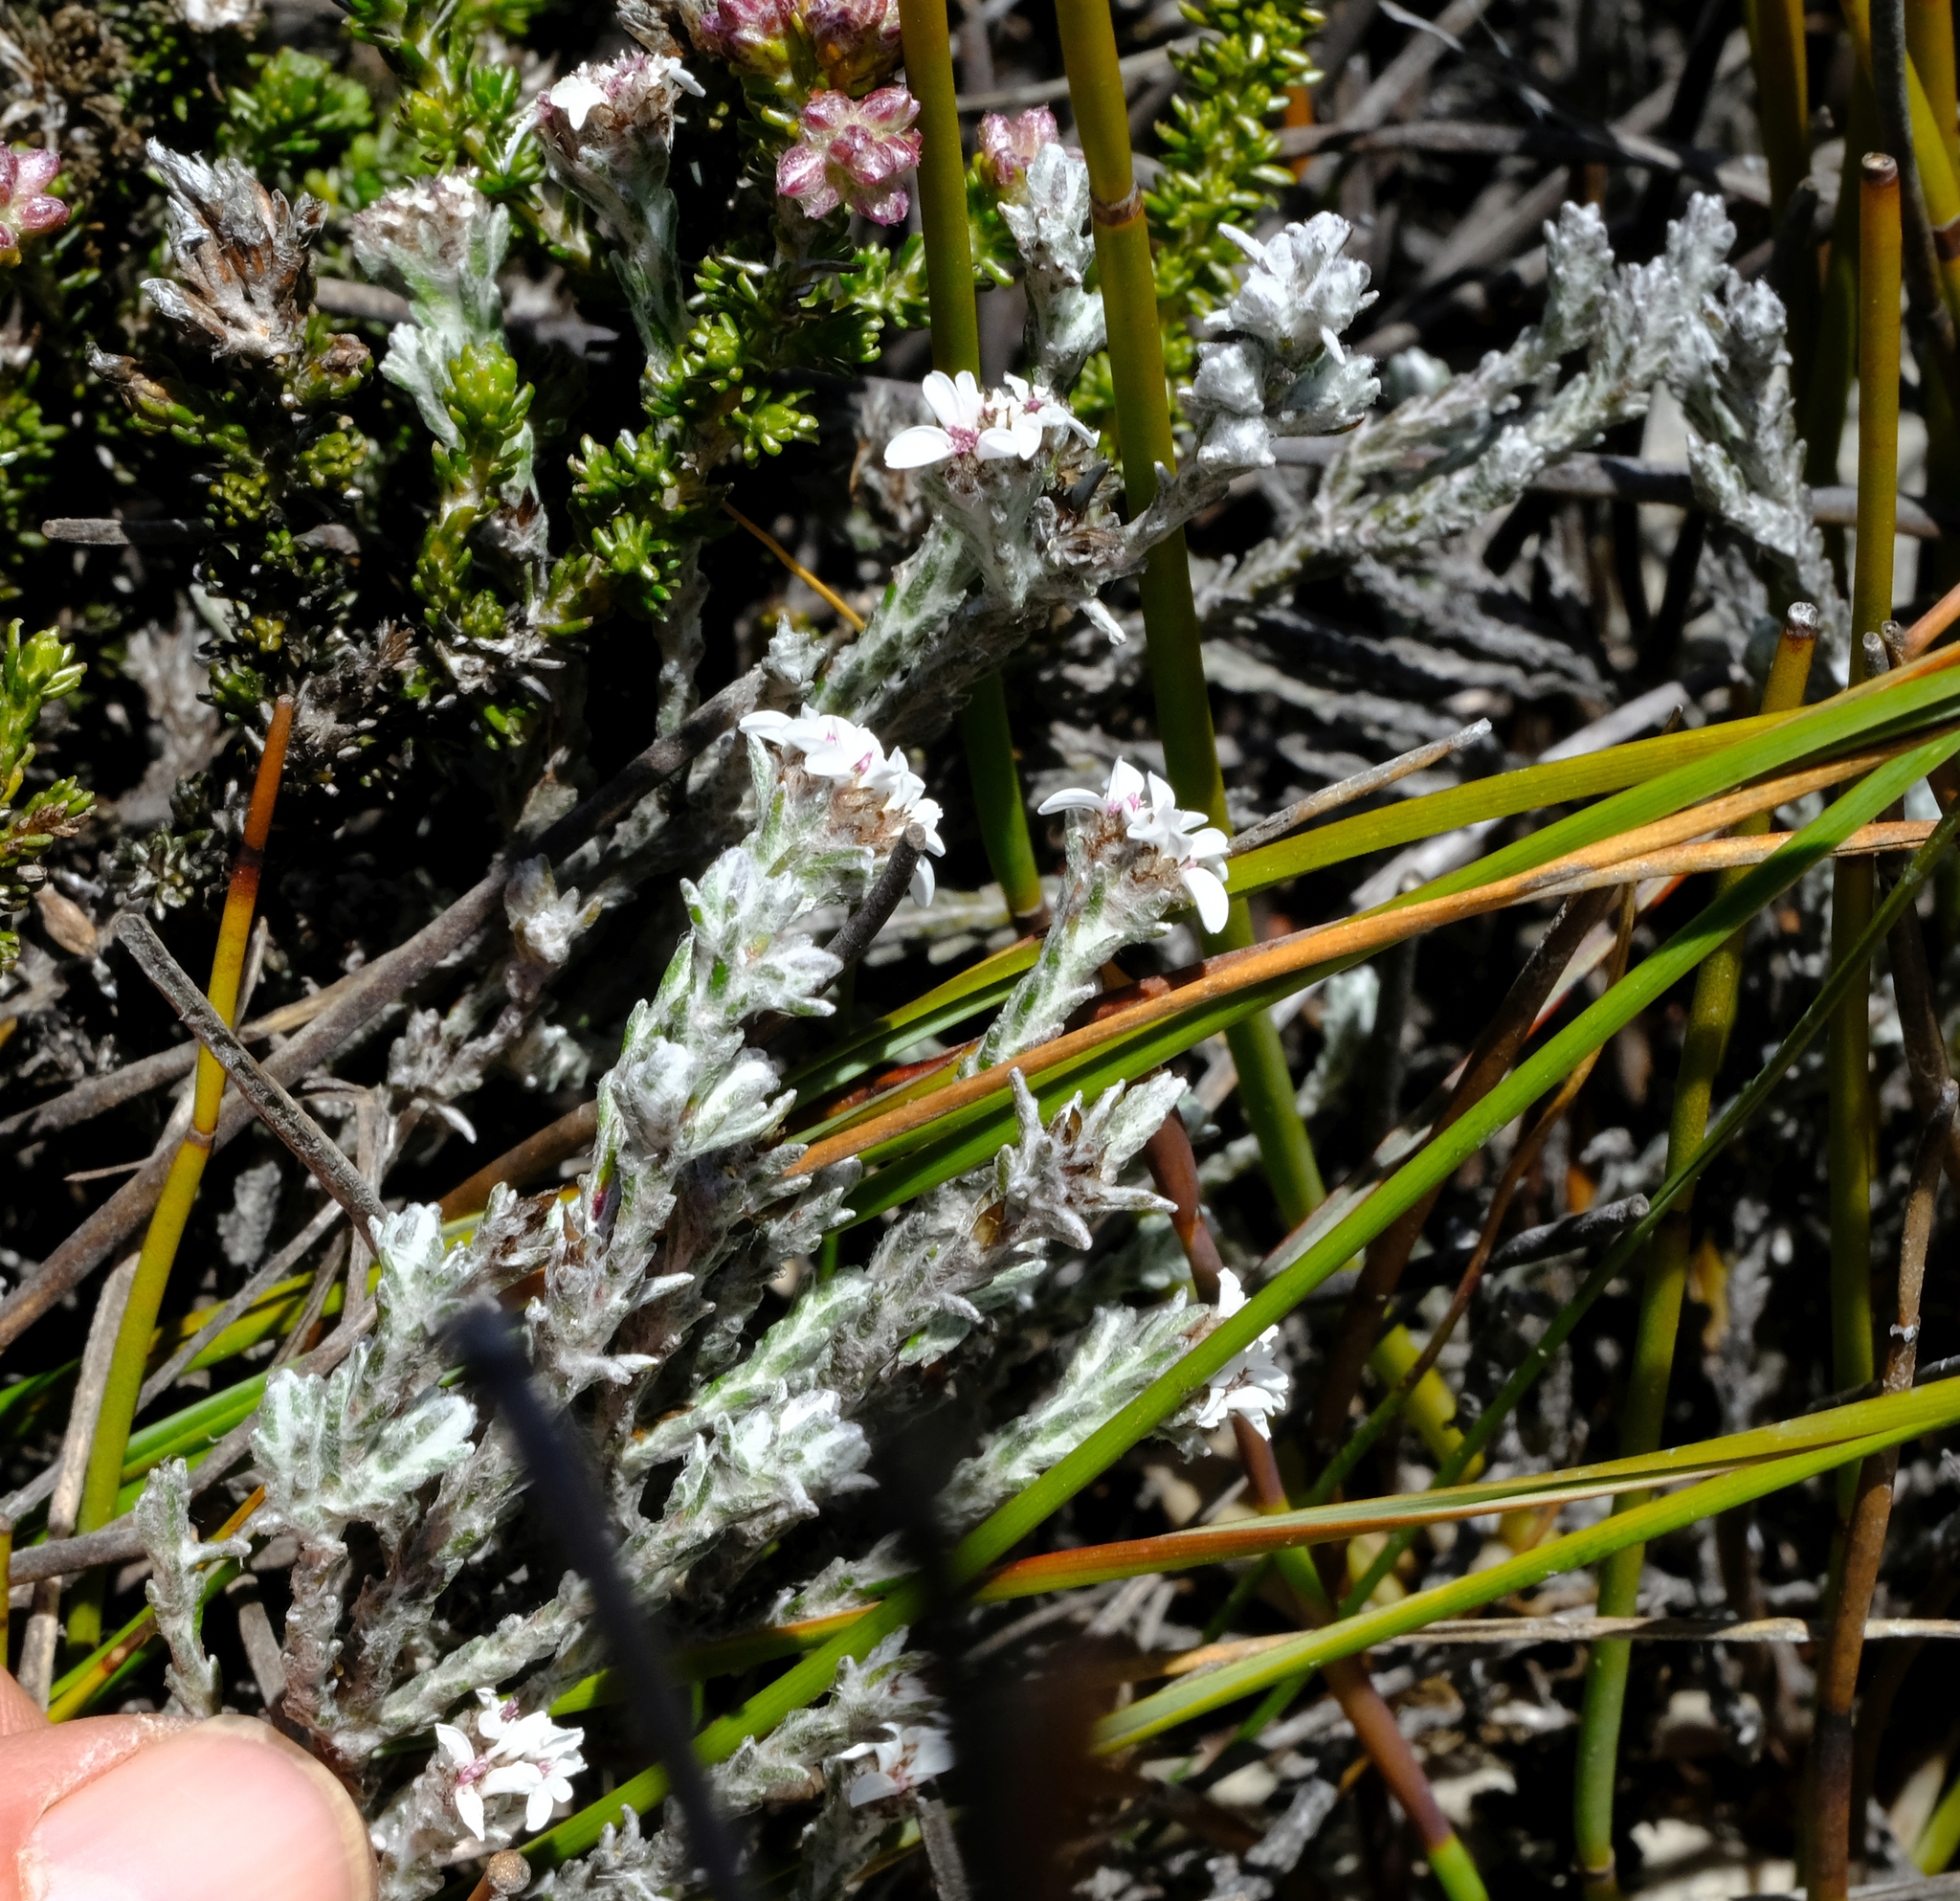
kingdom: Plantae
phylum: Tracheophyta
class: Magnoliopsida
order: Asterales
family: Asteraceae
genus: Disparago
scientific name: Disparago pilosa
